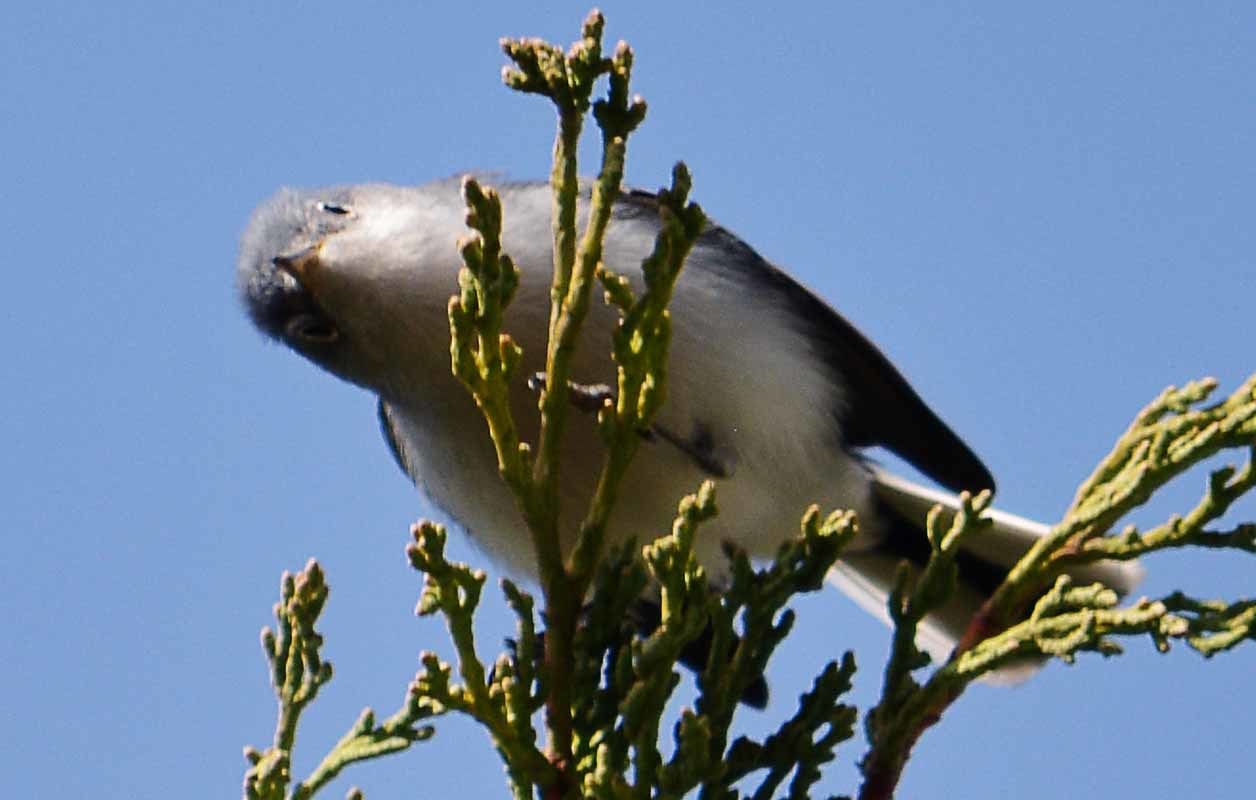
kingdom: Animalia
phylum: Chordata
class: Aves
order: Passeriformes
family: Polioptilidae
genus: Polioptila
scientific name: Polioptila caerulea
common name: Blue-gray gnatcatcher
